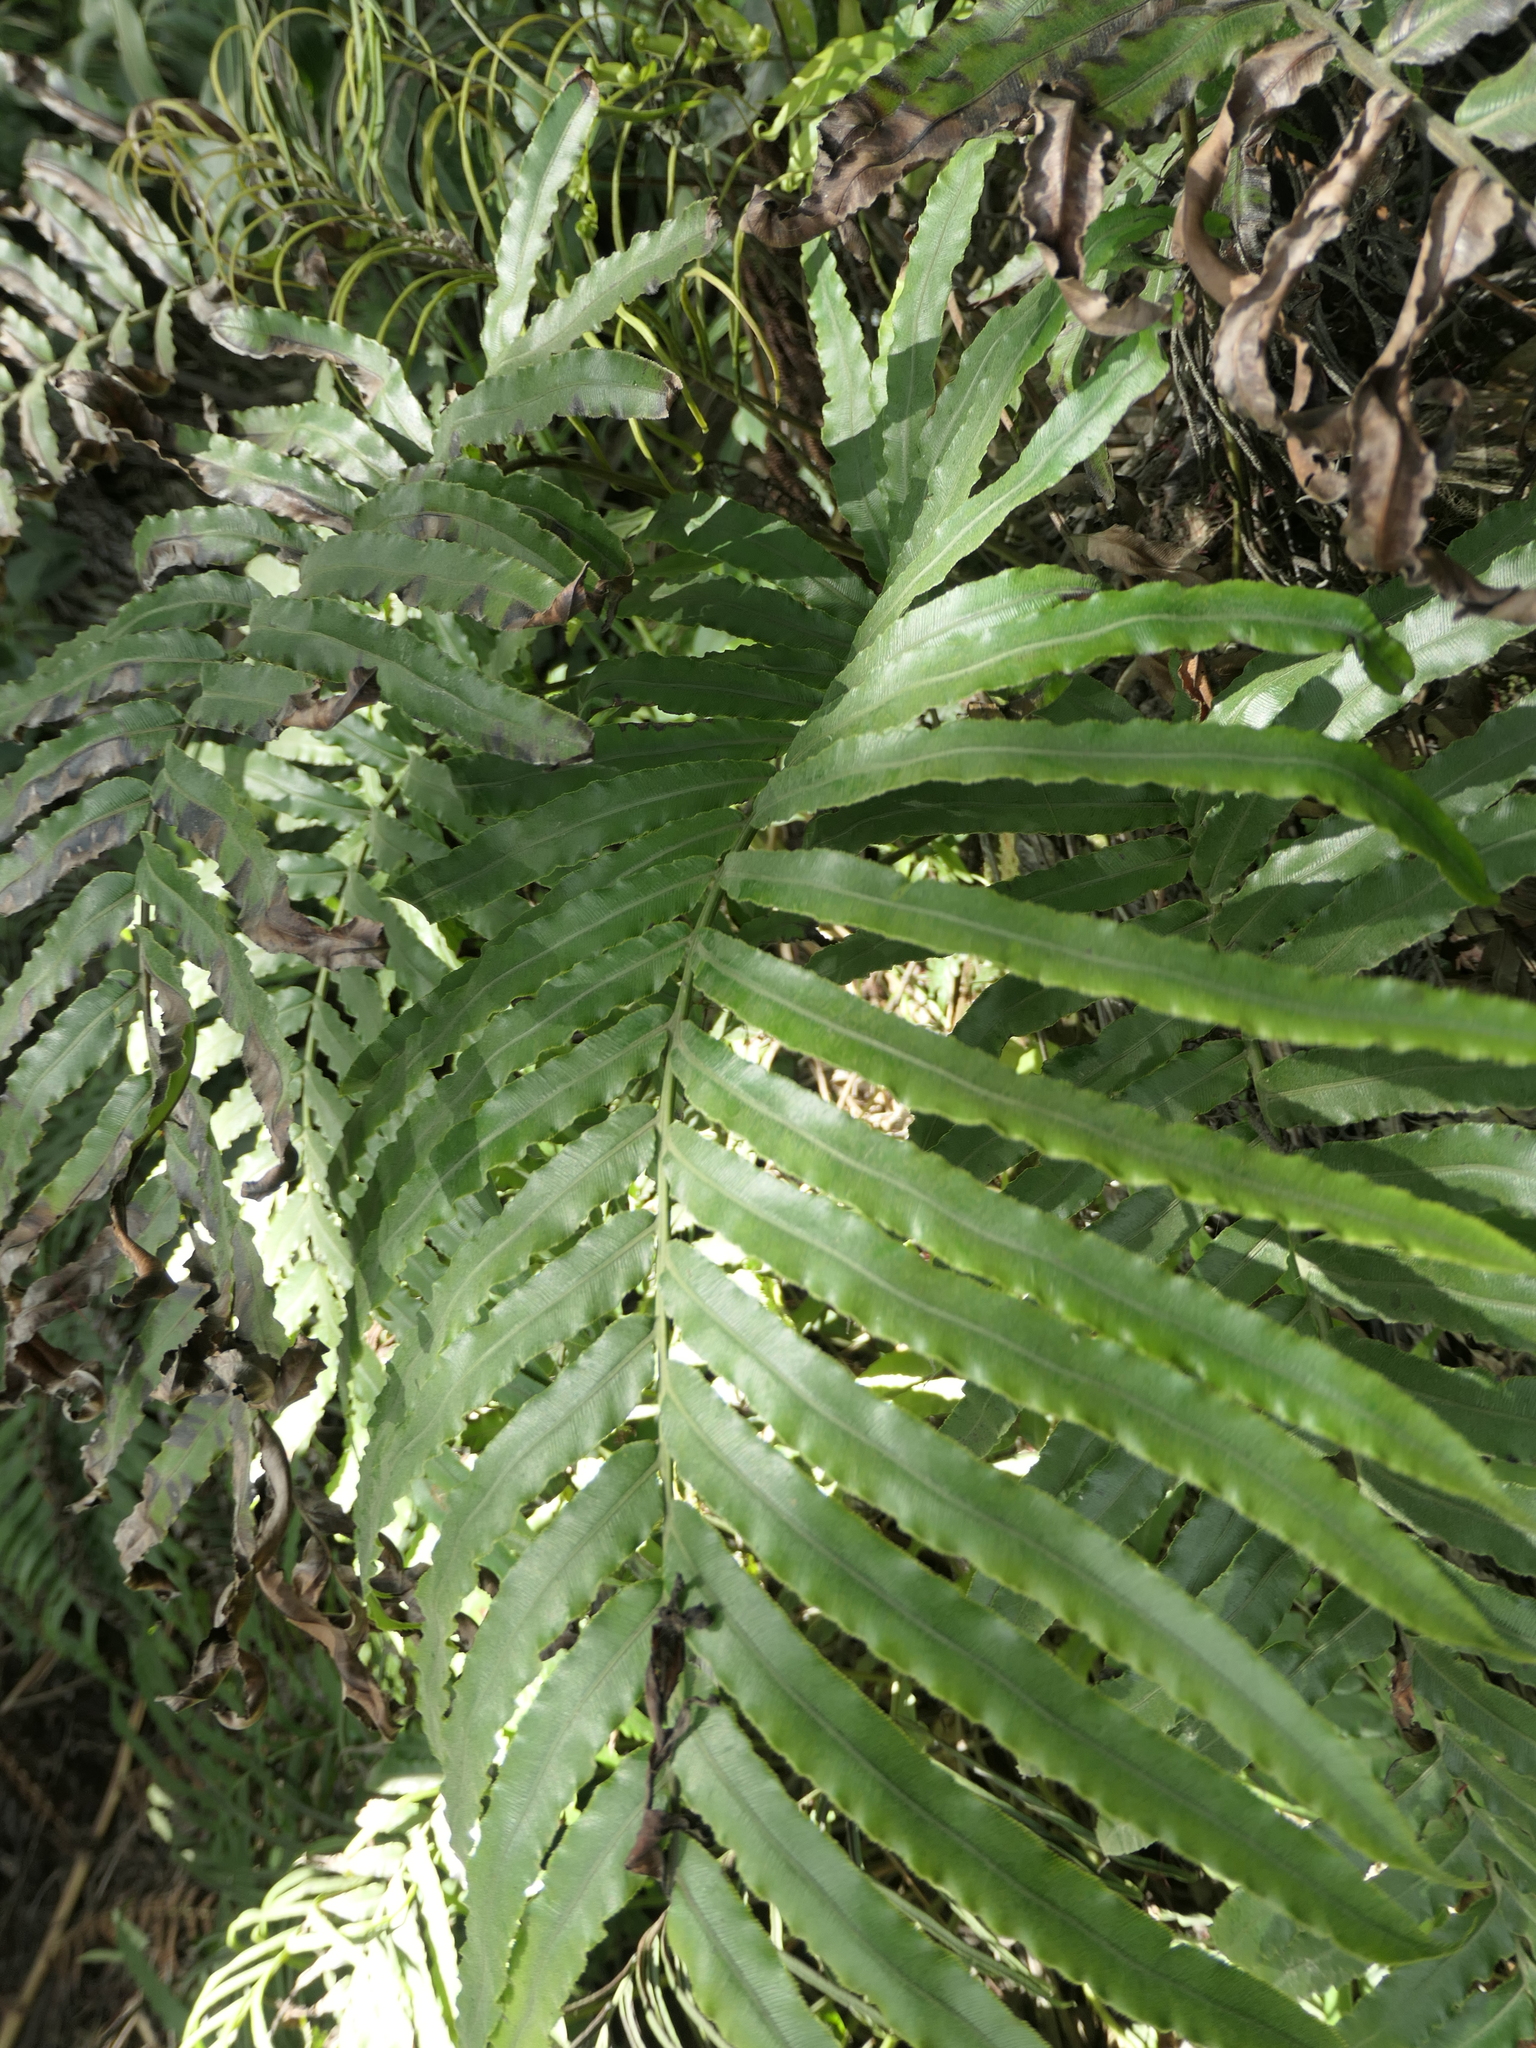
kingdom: Plantae
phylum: Tracheophyta
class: Polypodiopsida
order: Polypodiales
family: Blechnaceae
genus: Parablechnum
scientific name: Parablechnum triangularifolium
